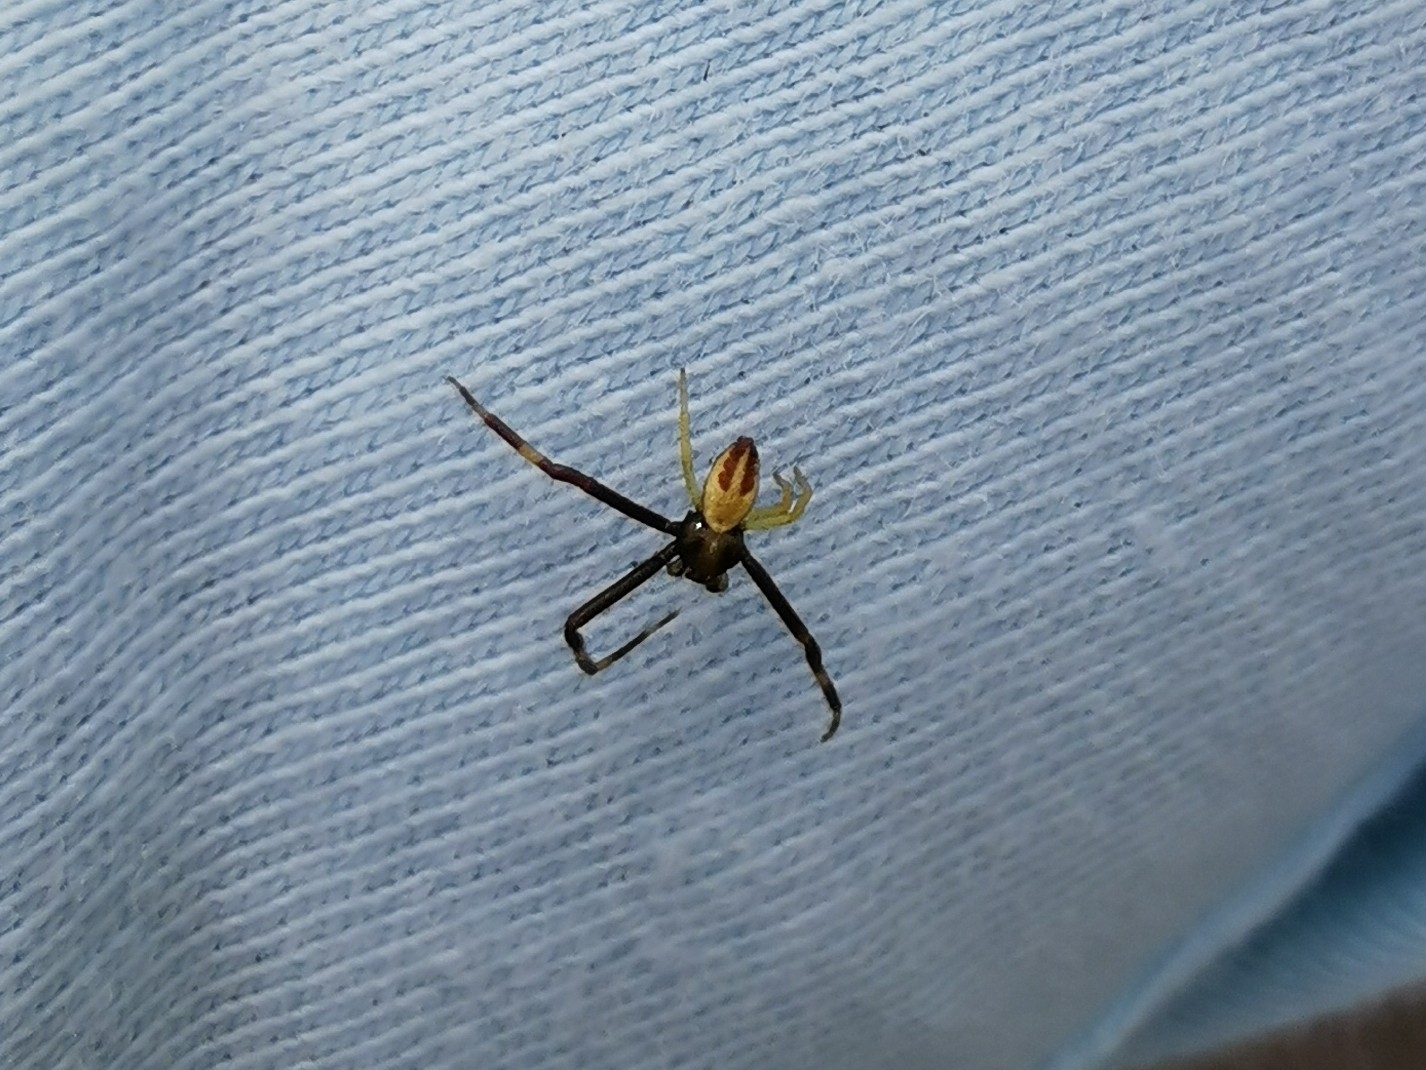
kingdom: Animalia
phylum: Arthropoda
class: Arachnida
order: Araneae
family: Thomisidae
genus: Misumena
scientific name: Misumena vatia
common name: Goldenrod crab spider
